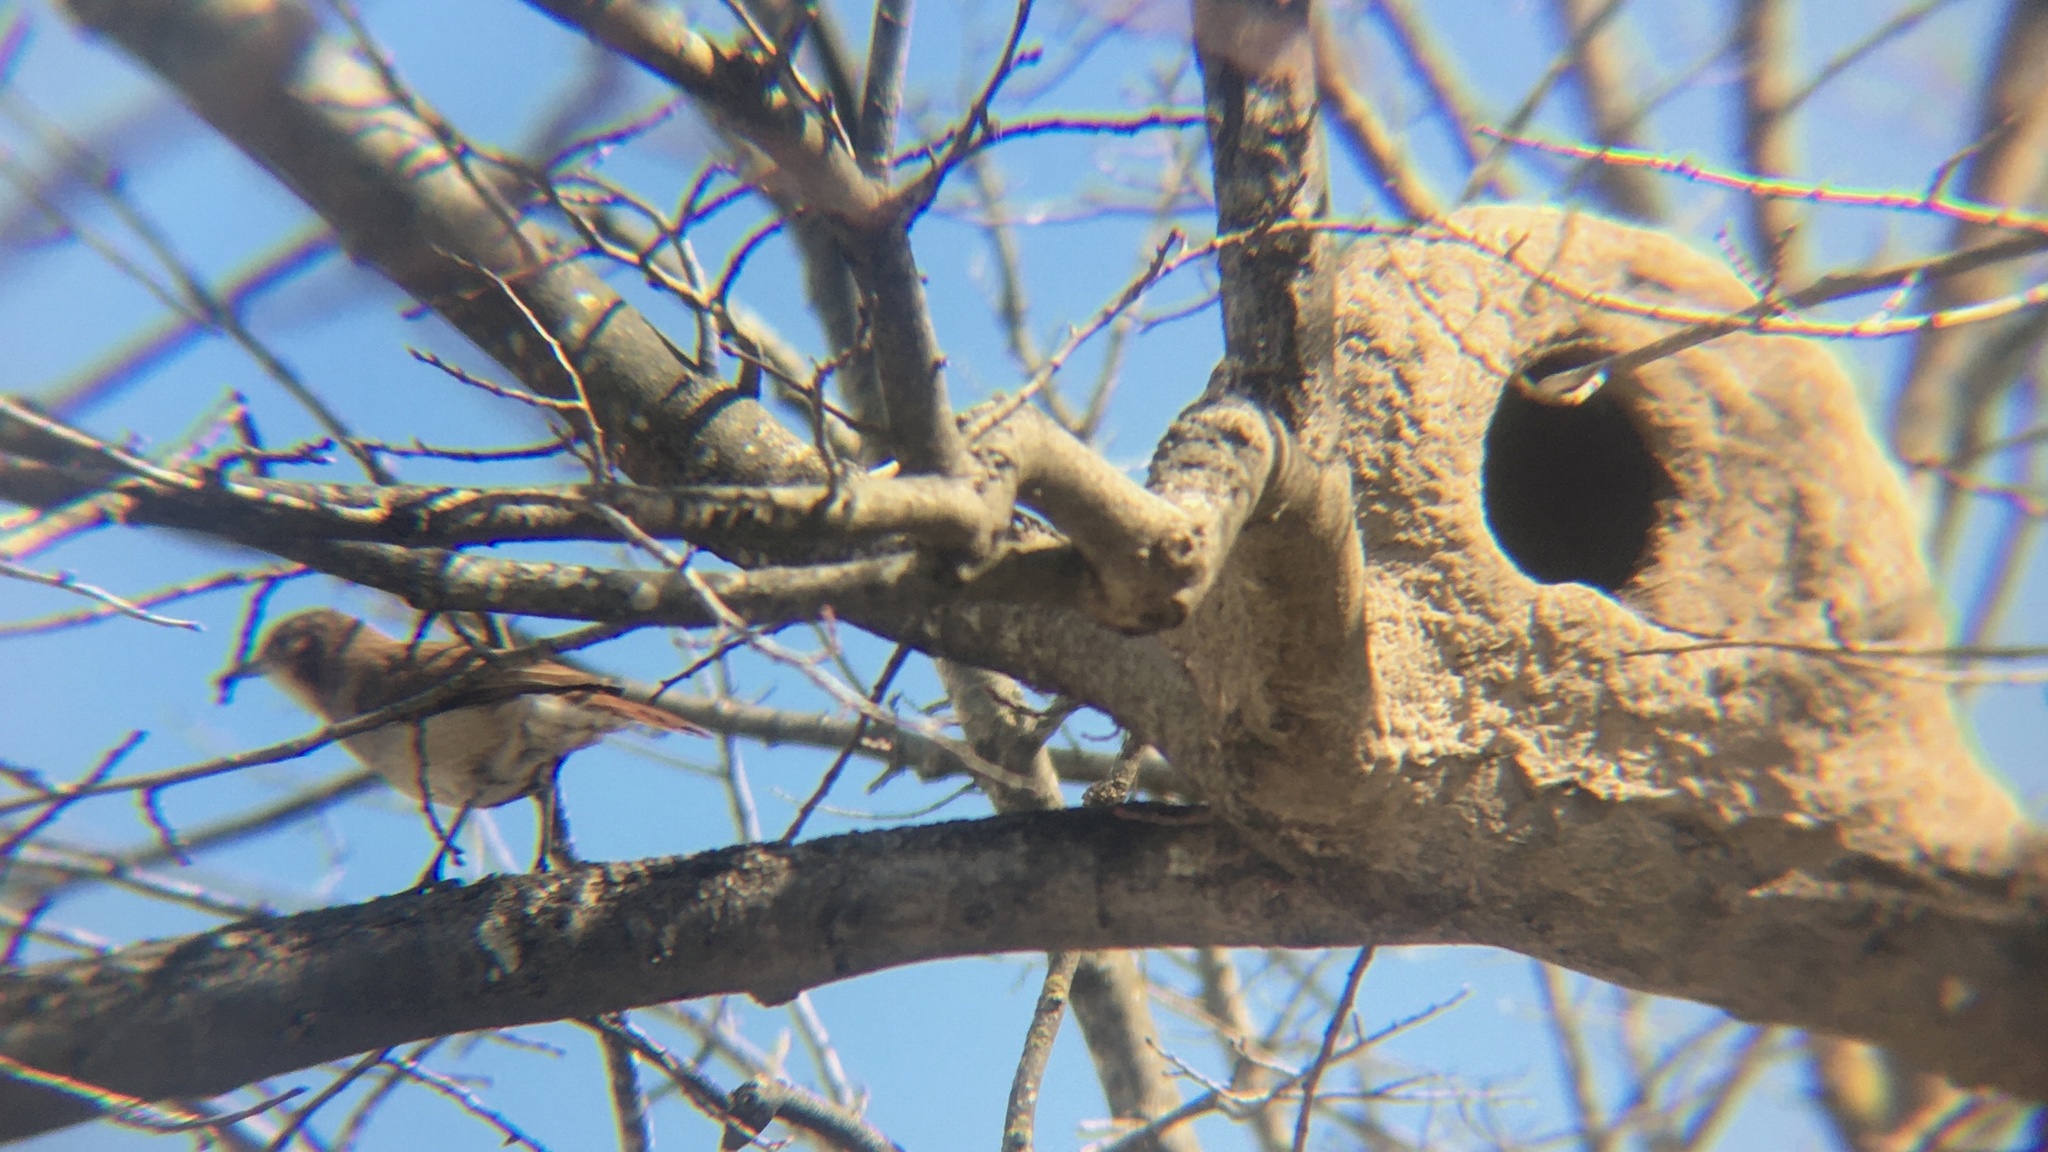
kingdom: Animalia
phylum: Chordata
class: Aves
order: Passeriformes
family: Furnariidae
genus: Furnarius
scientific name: Furnarius rufus
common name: Rufous hornero
